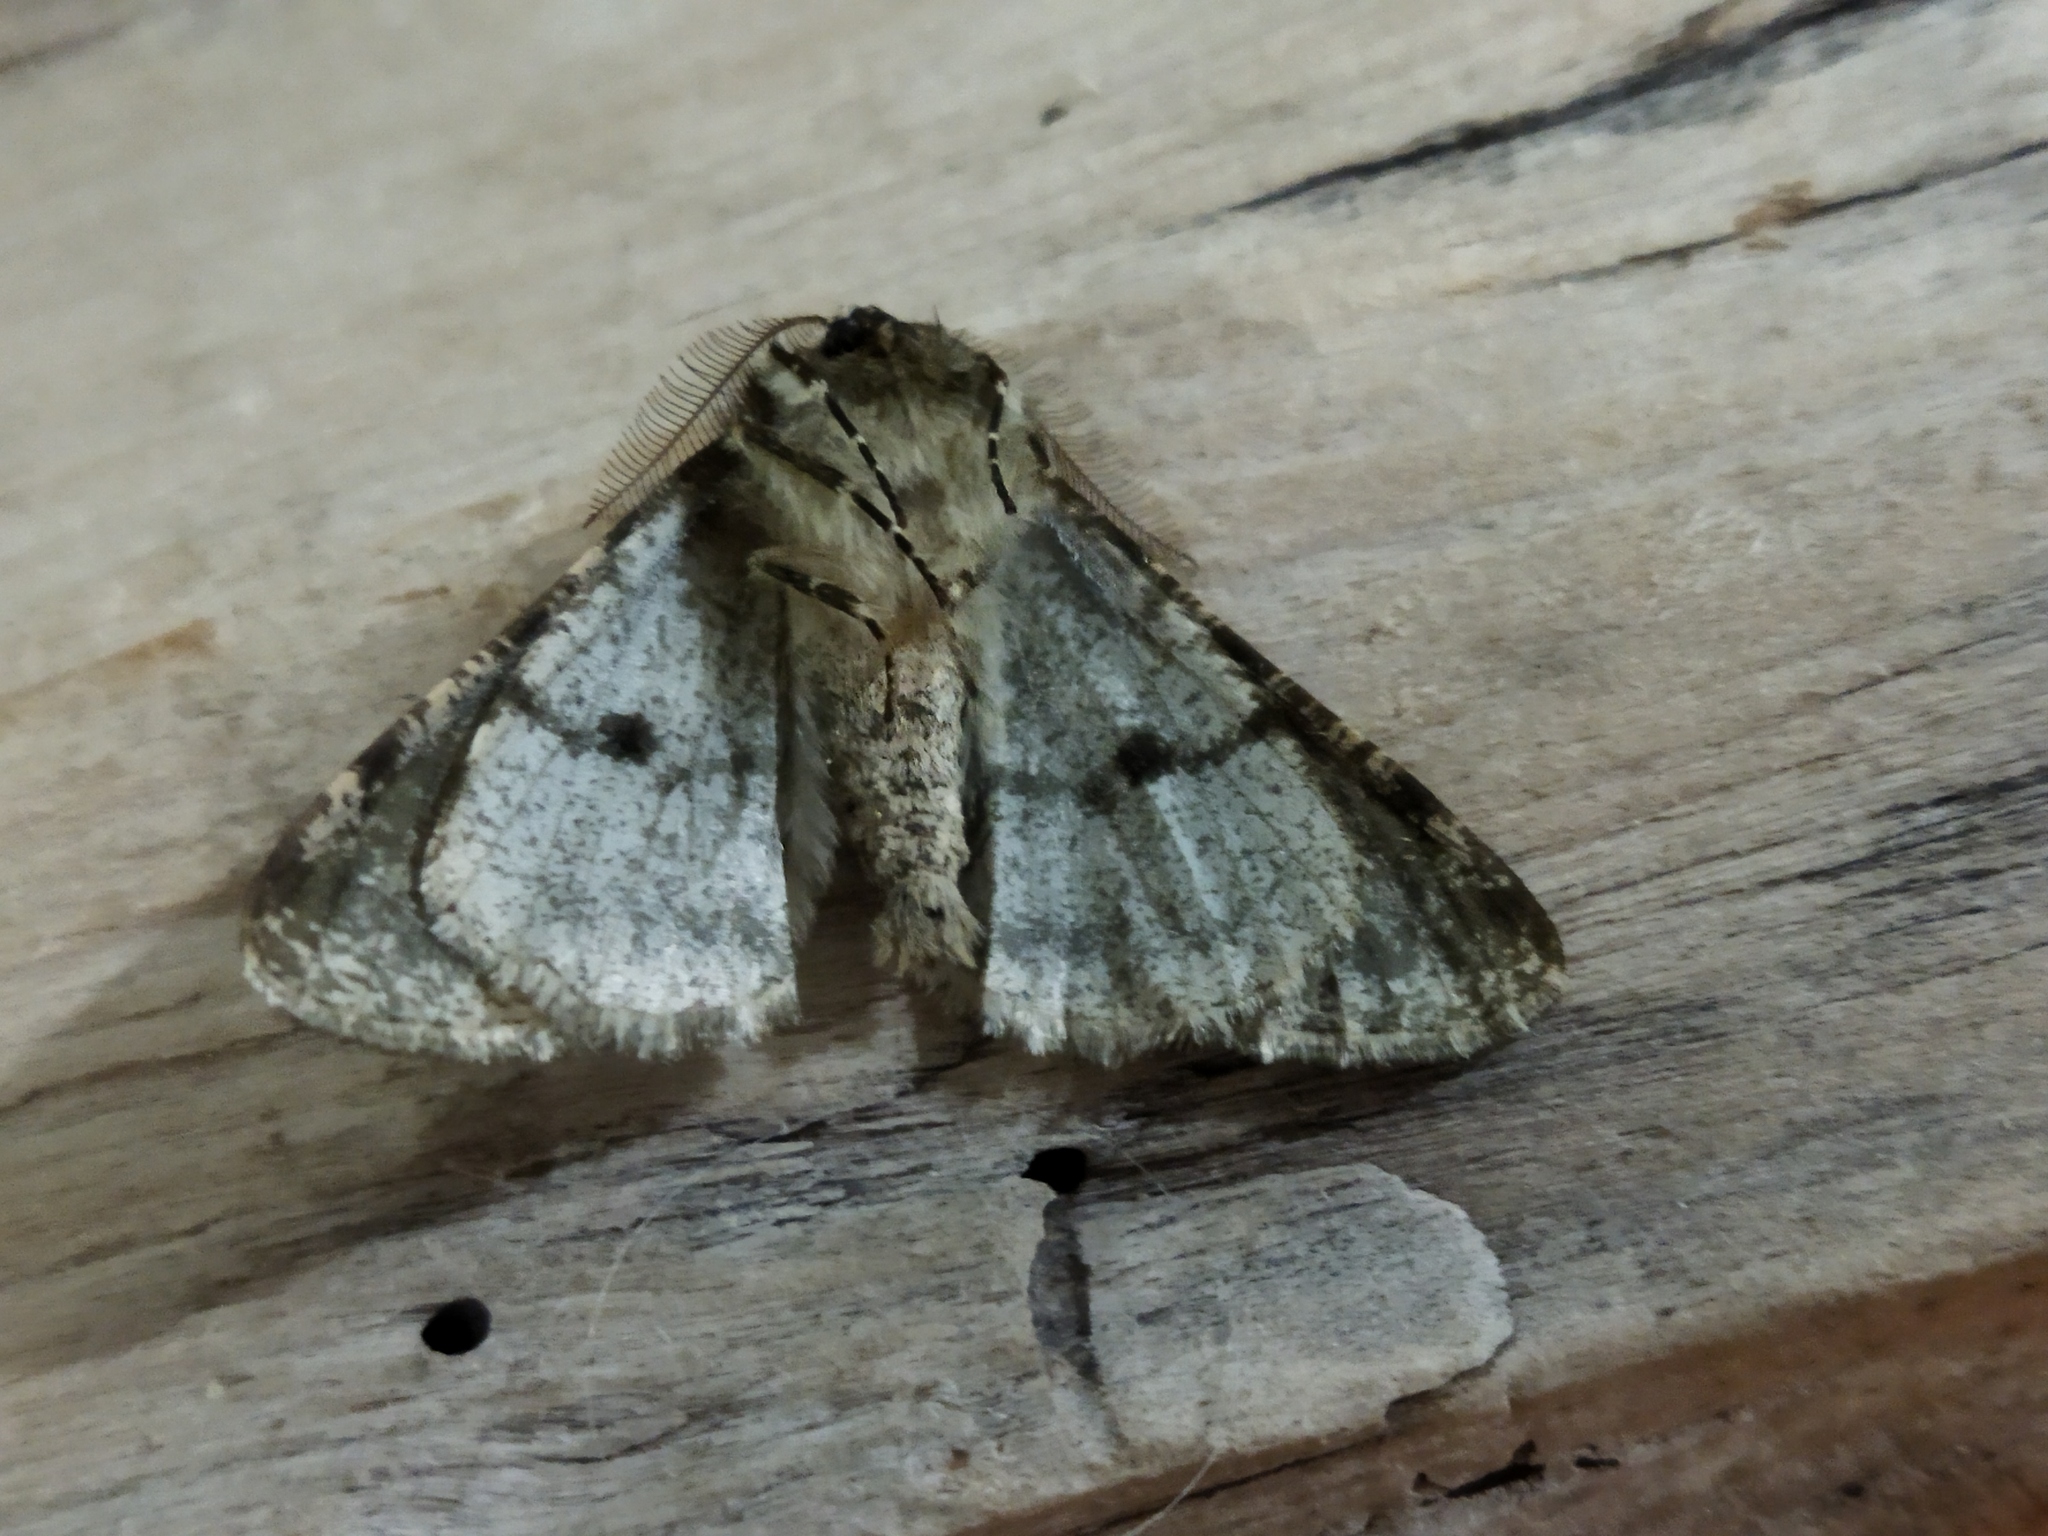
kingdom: Animalia
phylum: Arthropoda
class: Insecta
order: Lepidoptera
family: Geometridae
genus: Phigalia
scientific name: Phigalia pilosaria
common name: Pale brindled beauty
